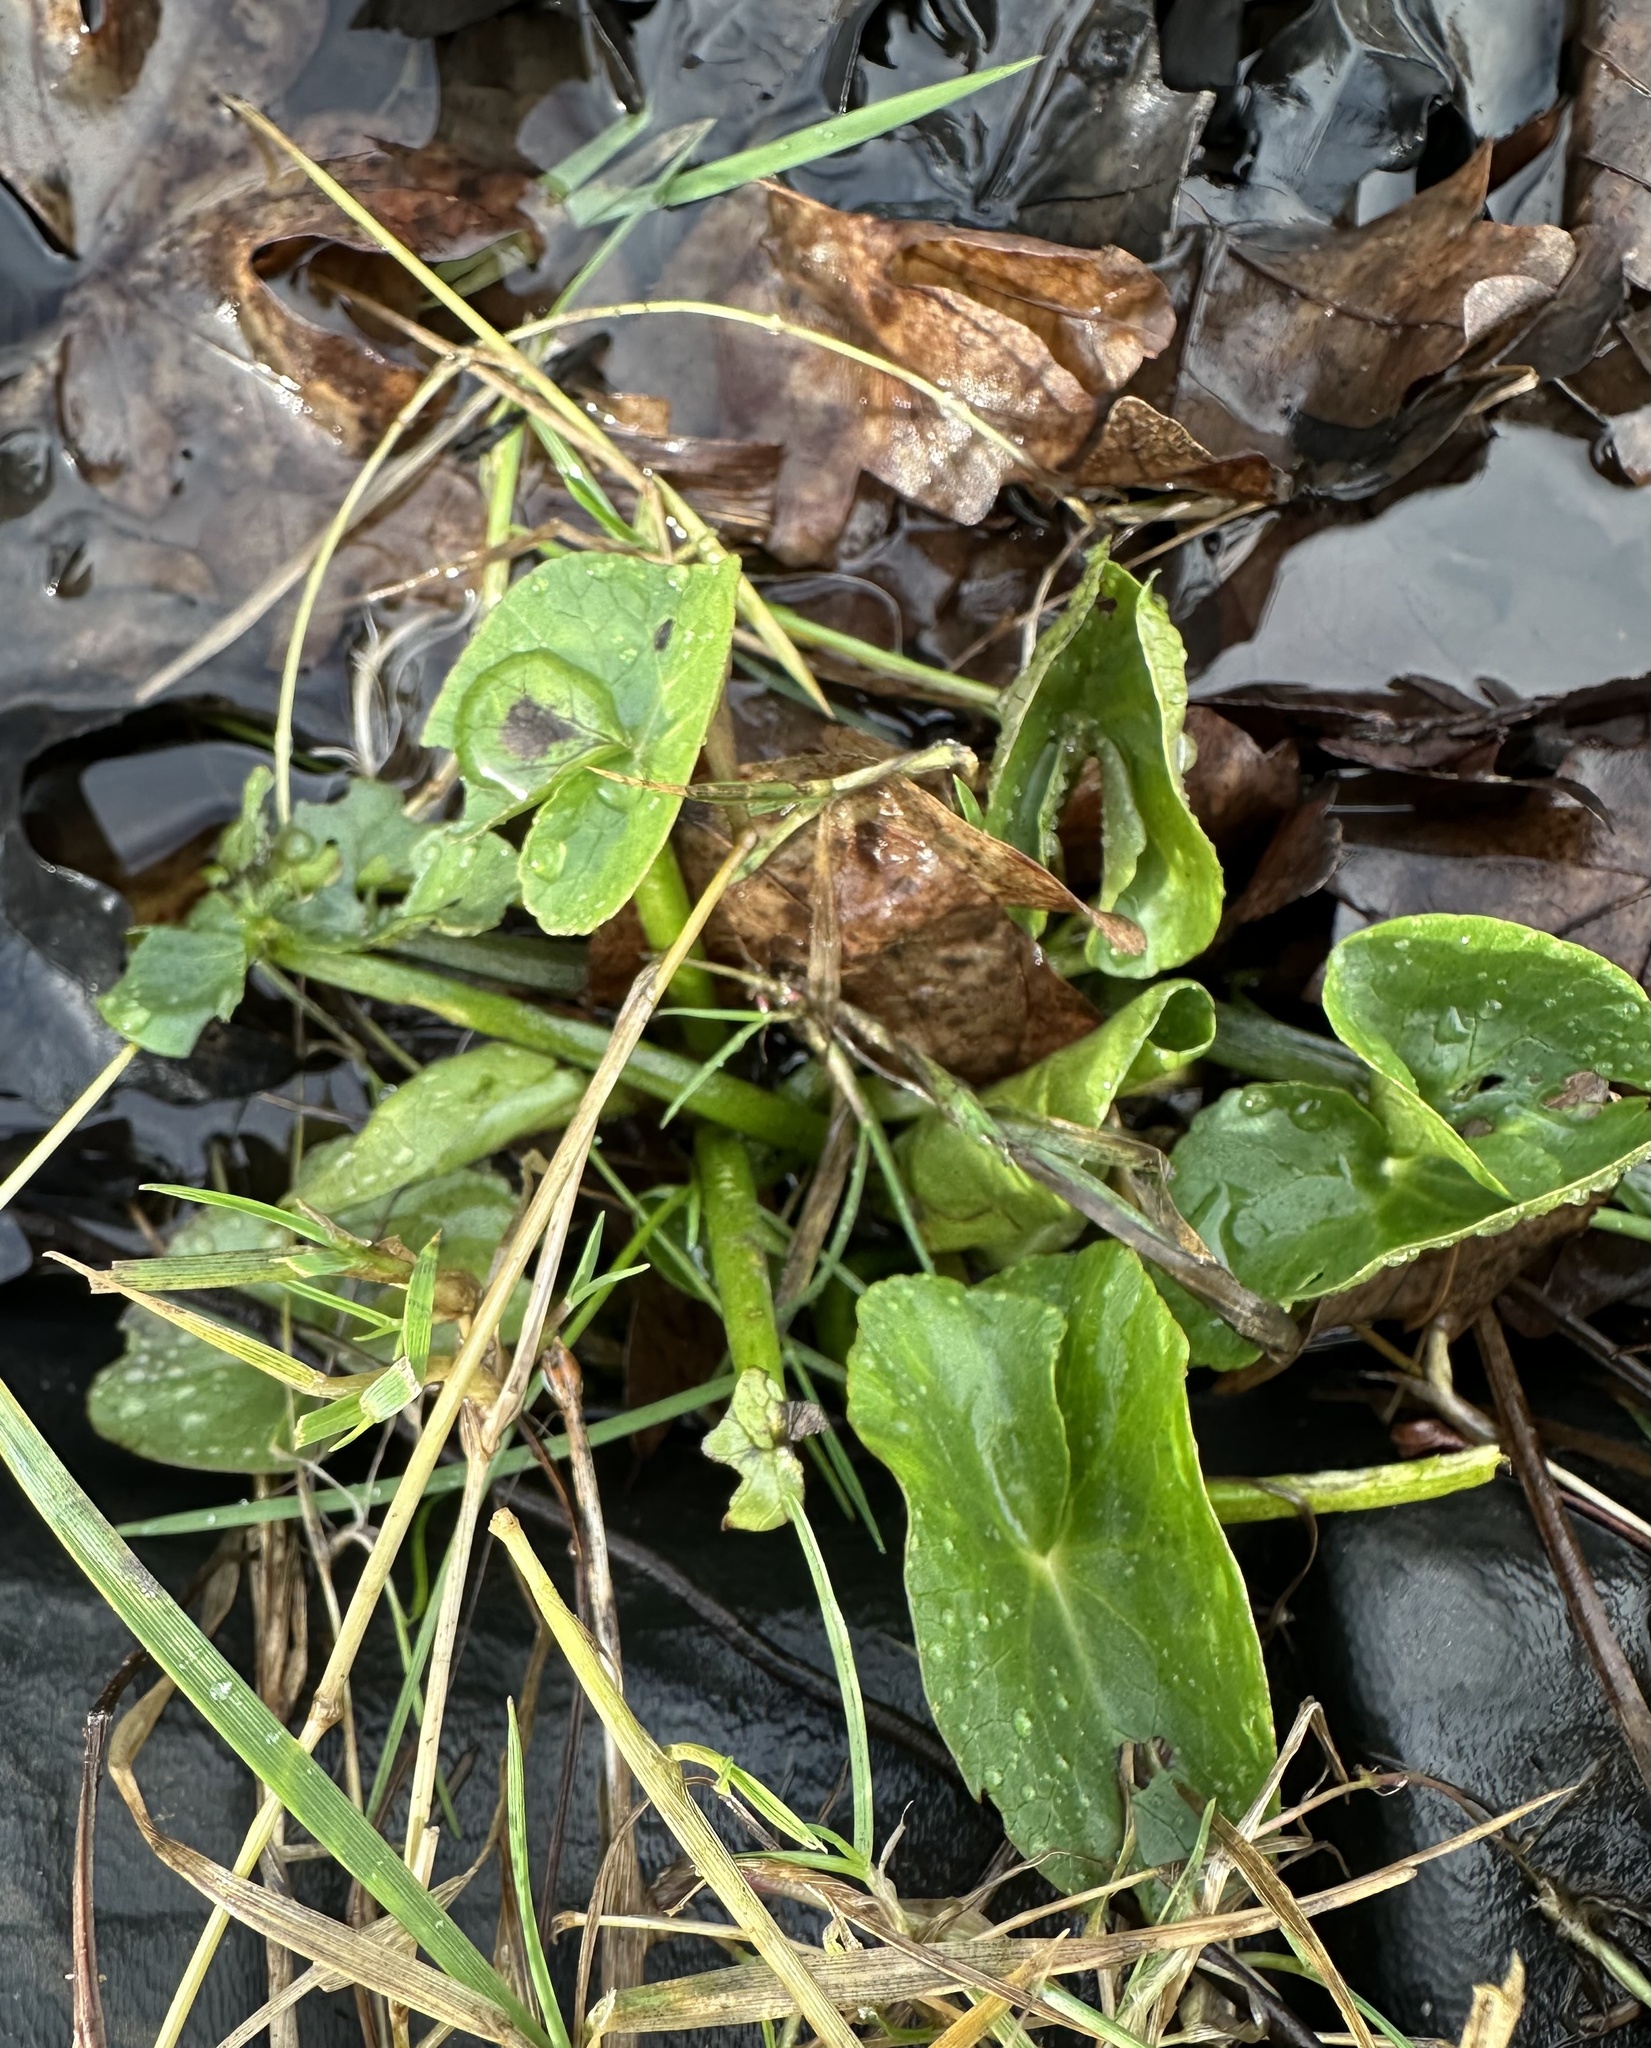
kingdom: Plantae
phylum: Tracheophyta
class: Magnoliopsida
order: Ranunculales
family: Ranunculaceae
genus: Caltha
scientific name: Caltha palustris
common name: Marsh marigold
